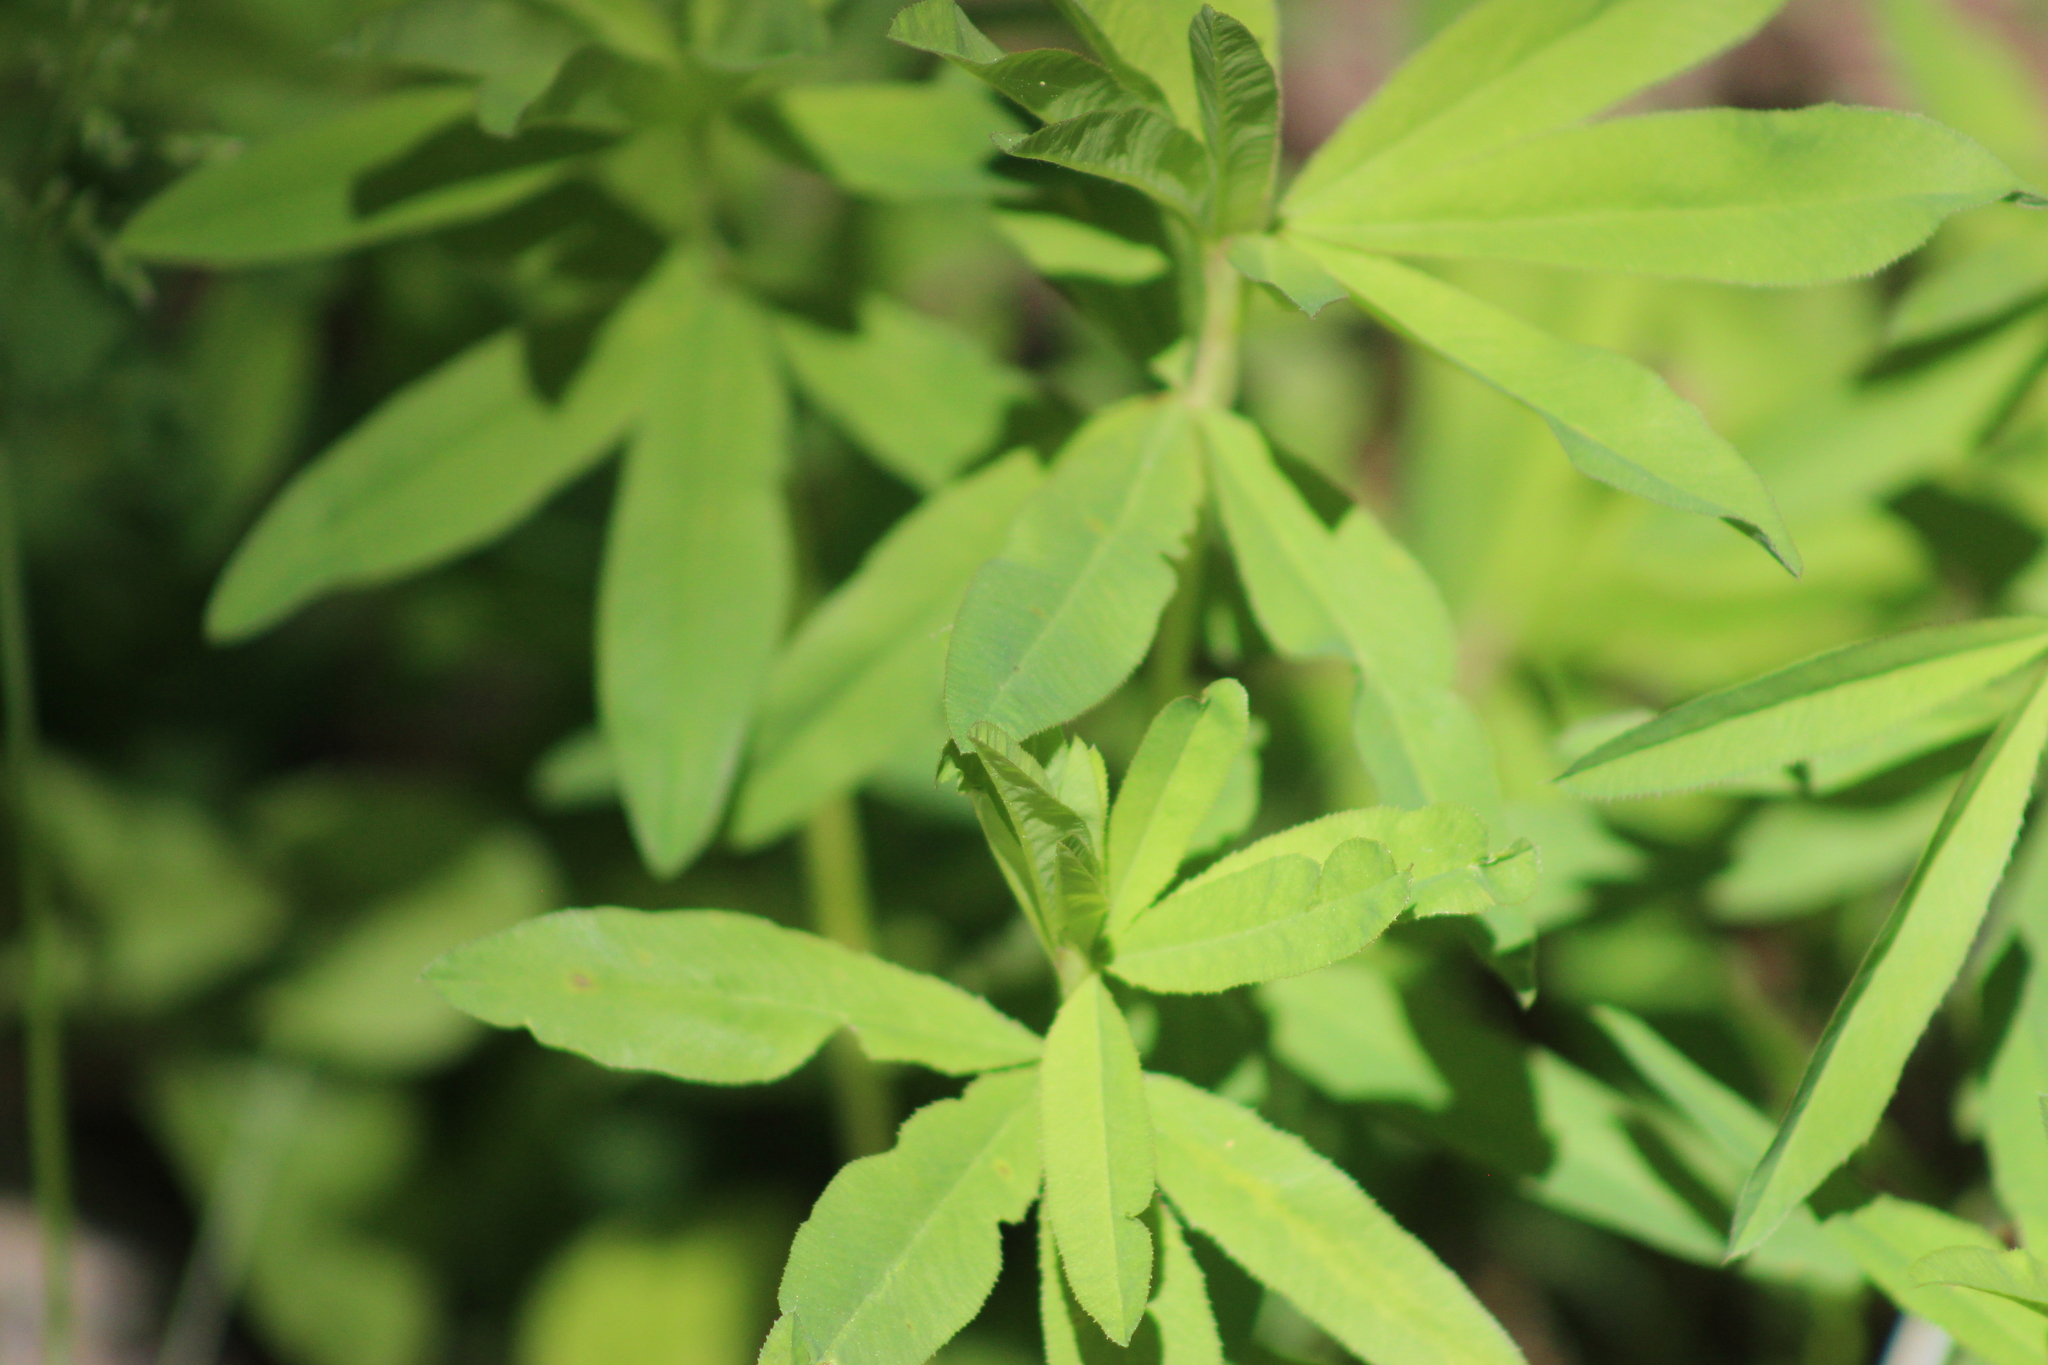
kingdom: Plantae
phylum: Tracheophyta
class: Magnoliopsida
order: Fabales
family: Fabaceae
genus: Trifolium
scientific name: Trifolium lupinaster
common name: Lupine clover
